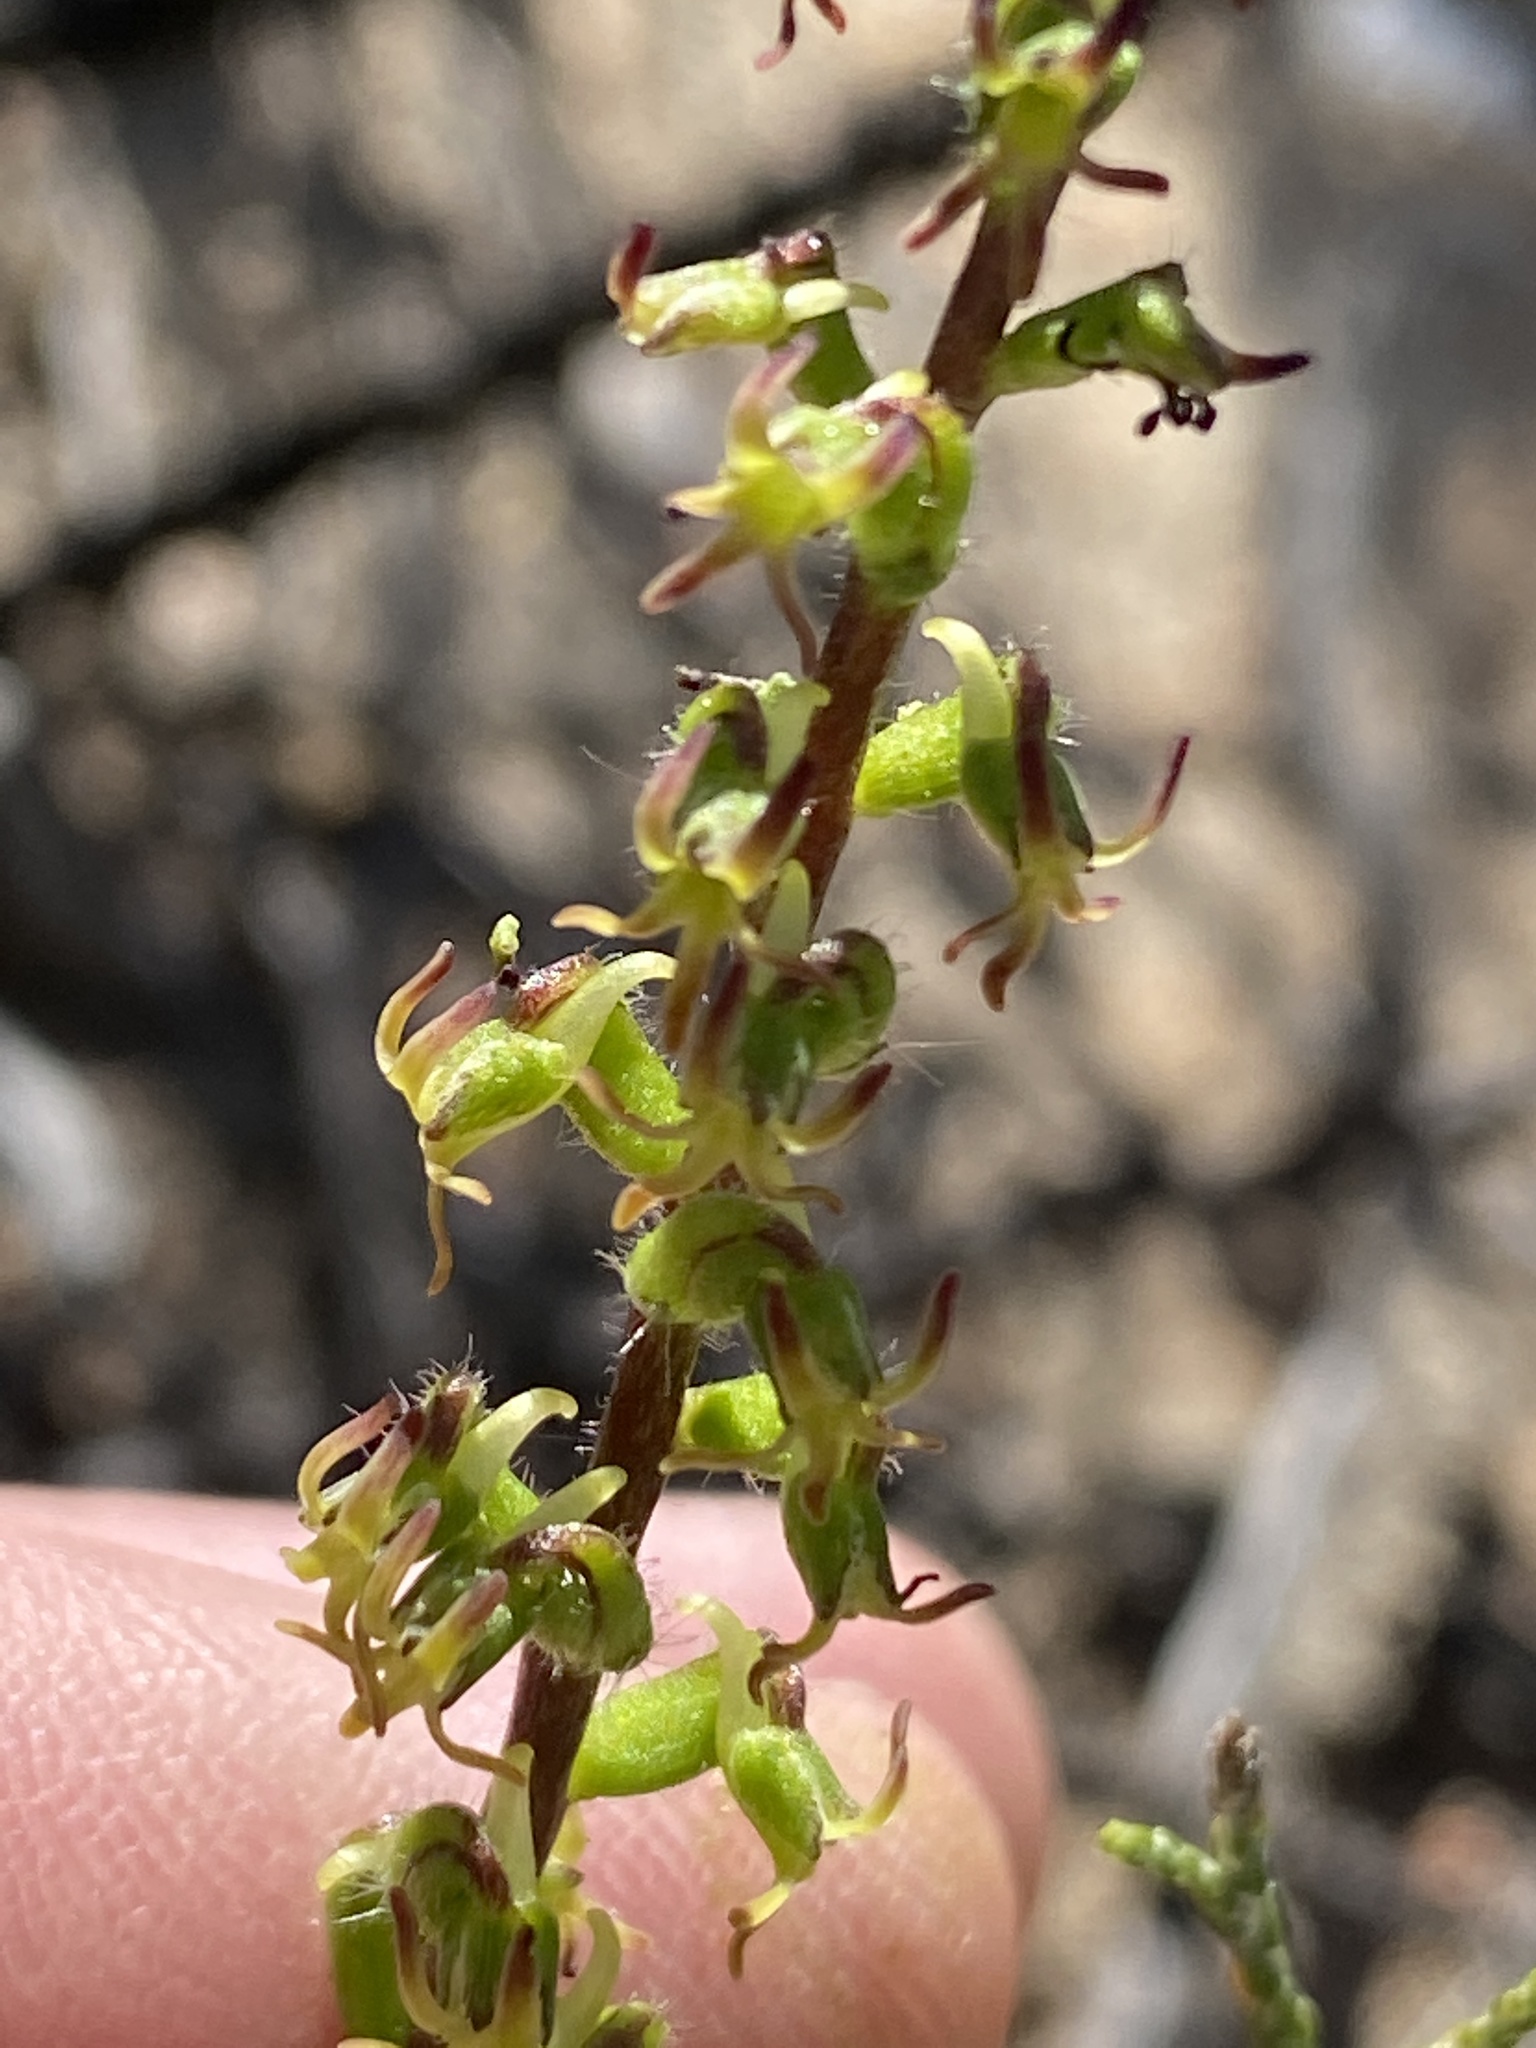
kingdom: Plantae
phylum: Tracheophyta
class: Liliopsida
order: Asparagales
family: Orchidaceae
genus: Holothrix
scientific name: Holothrix villosa
